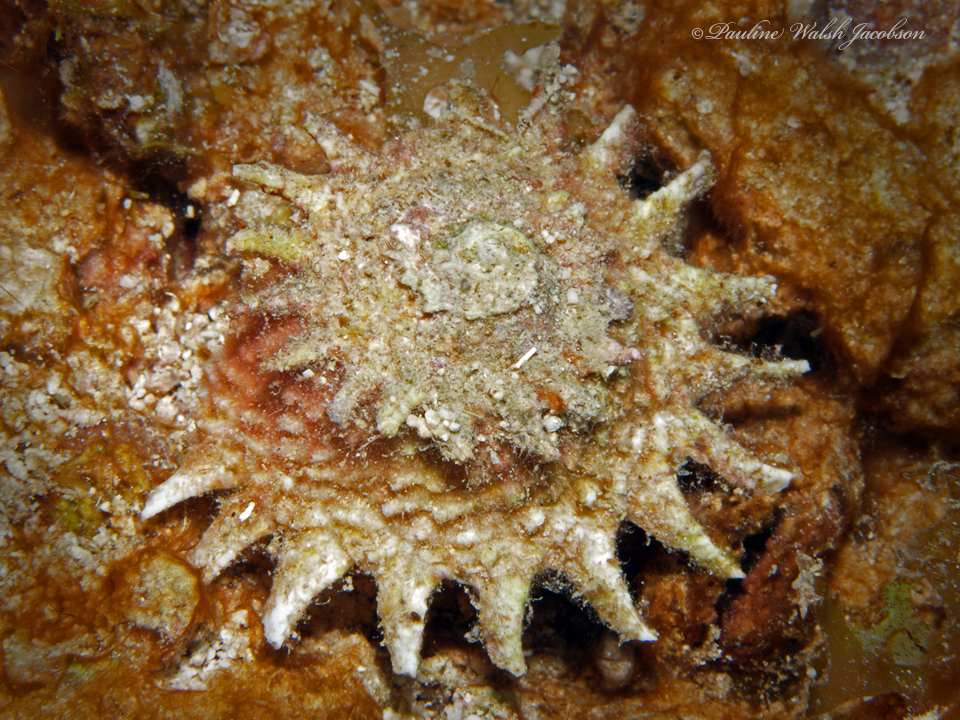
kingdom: Animalia
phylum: Mollusca
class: Gastropoda
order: Trochida
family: Turbinidae
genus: Lithopoma
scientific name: Lithopoma phoebium
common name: Long-spined starsnail
